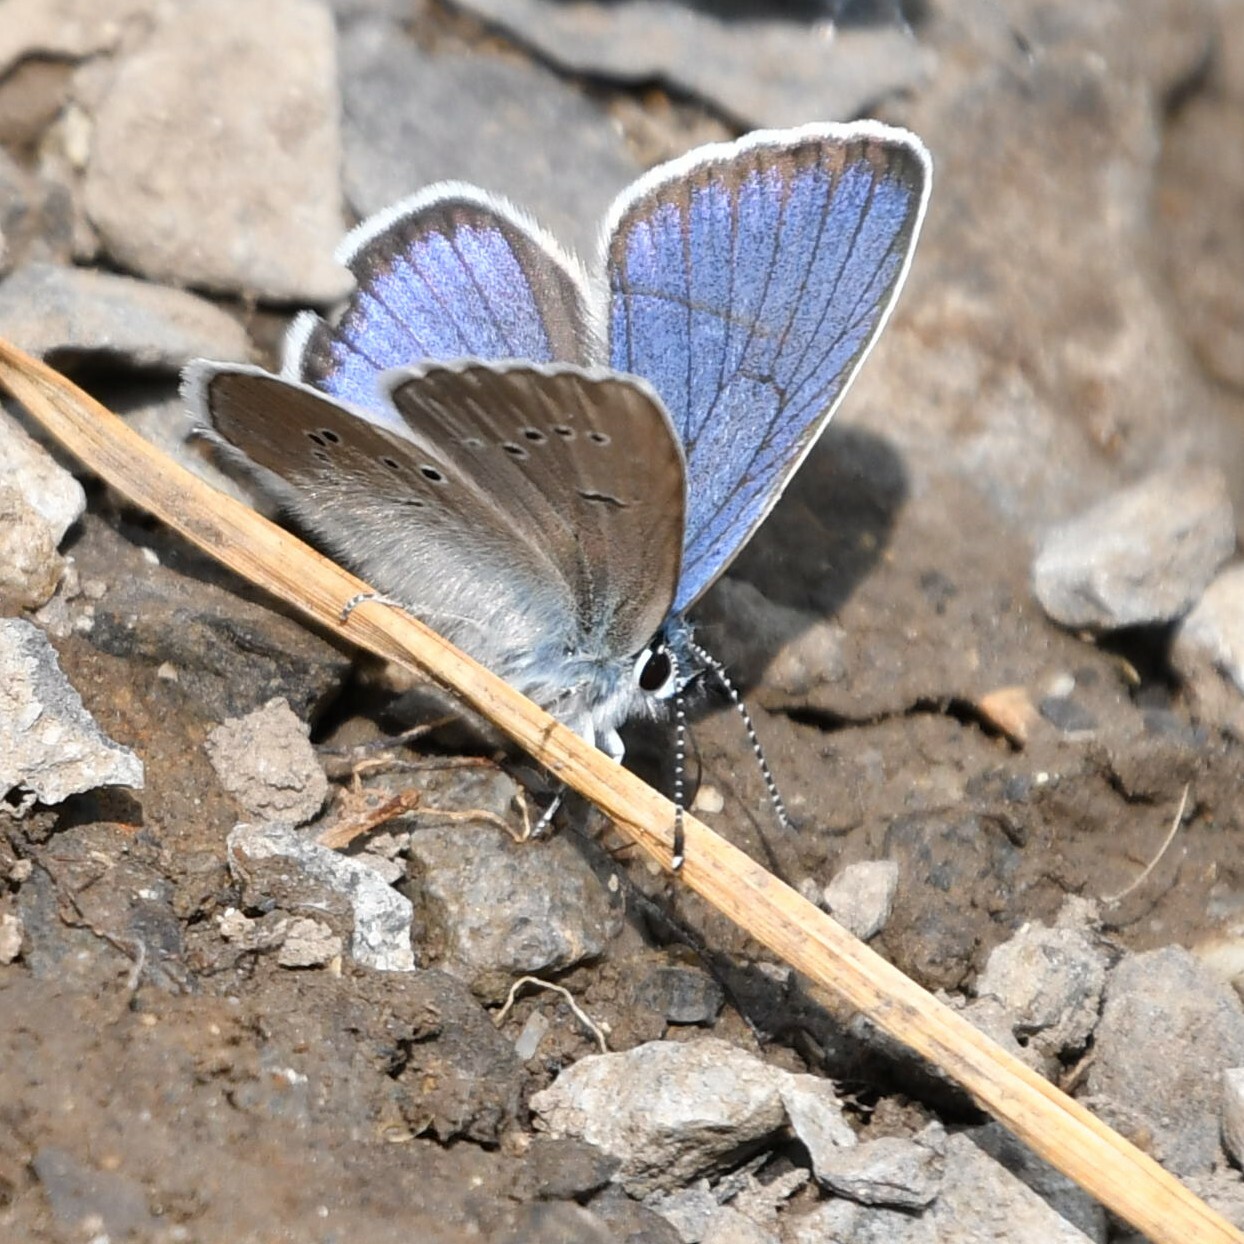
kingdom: Animalia
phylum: Arthropoda
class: Insecta
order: Lepidoptera
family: Lycaenidae
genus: Cyaniris
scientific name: Cyaniris semiargus
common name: Mazarine blue
